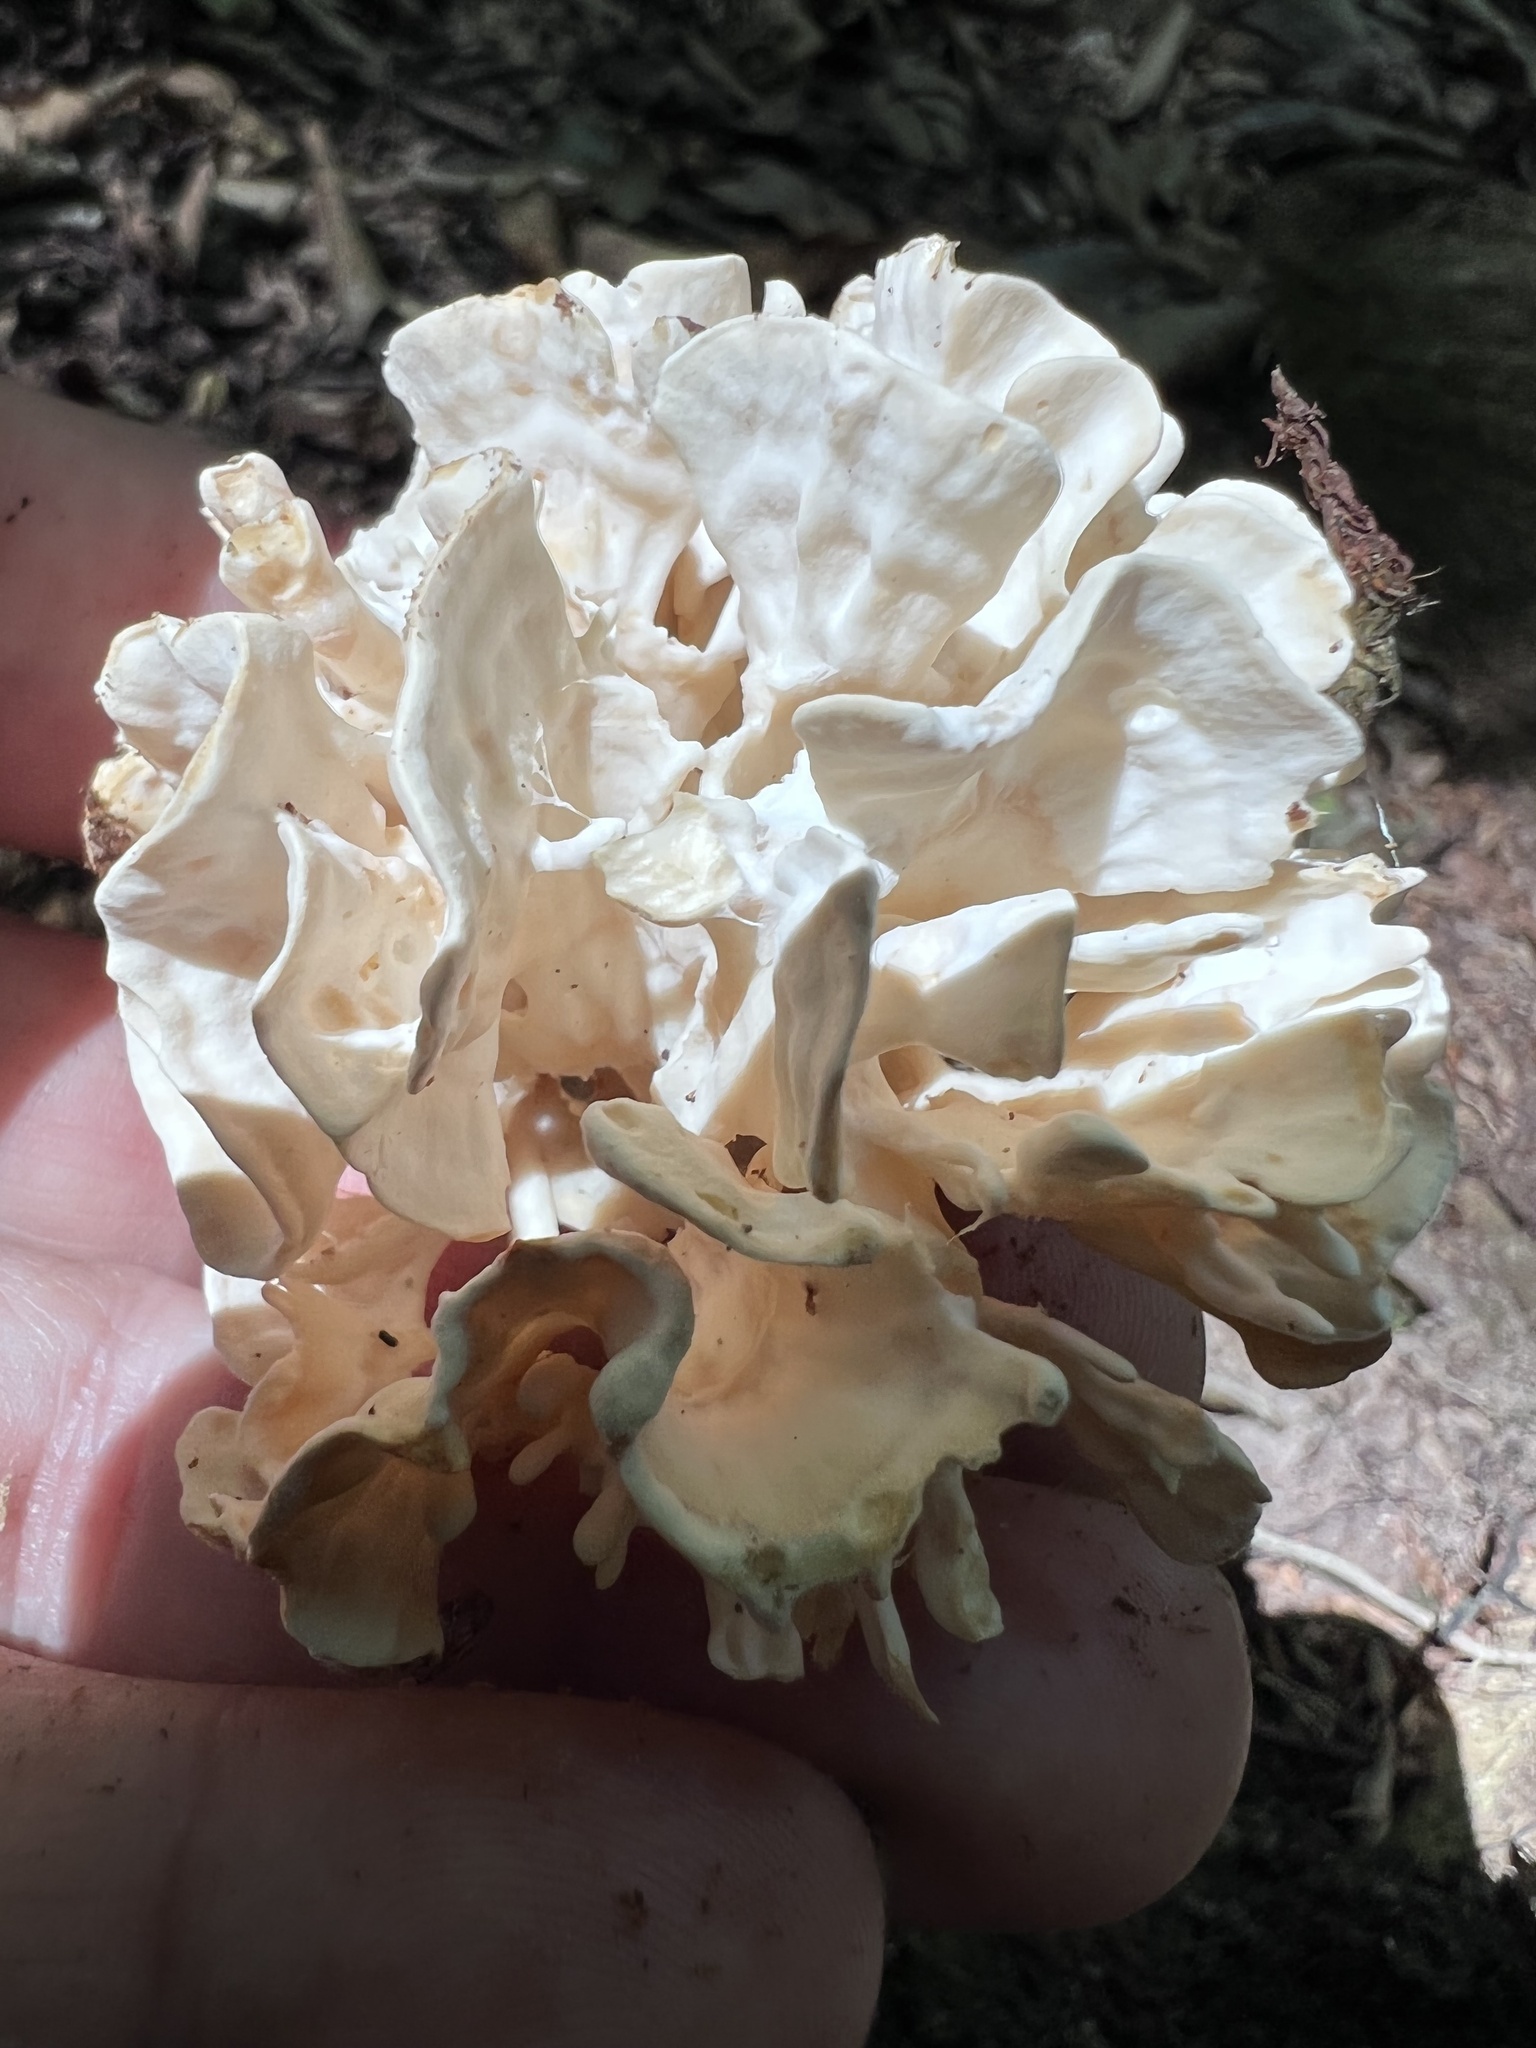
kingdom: Fungi
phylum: Basidiomycota
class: Agaricomycetes
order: Polyporales
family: Sparassidaceae
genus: Sparassis
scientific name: Sparassis spathulata
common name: Eastern cauliflower mushroom
